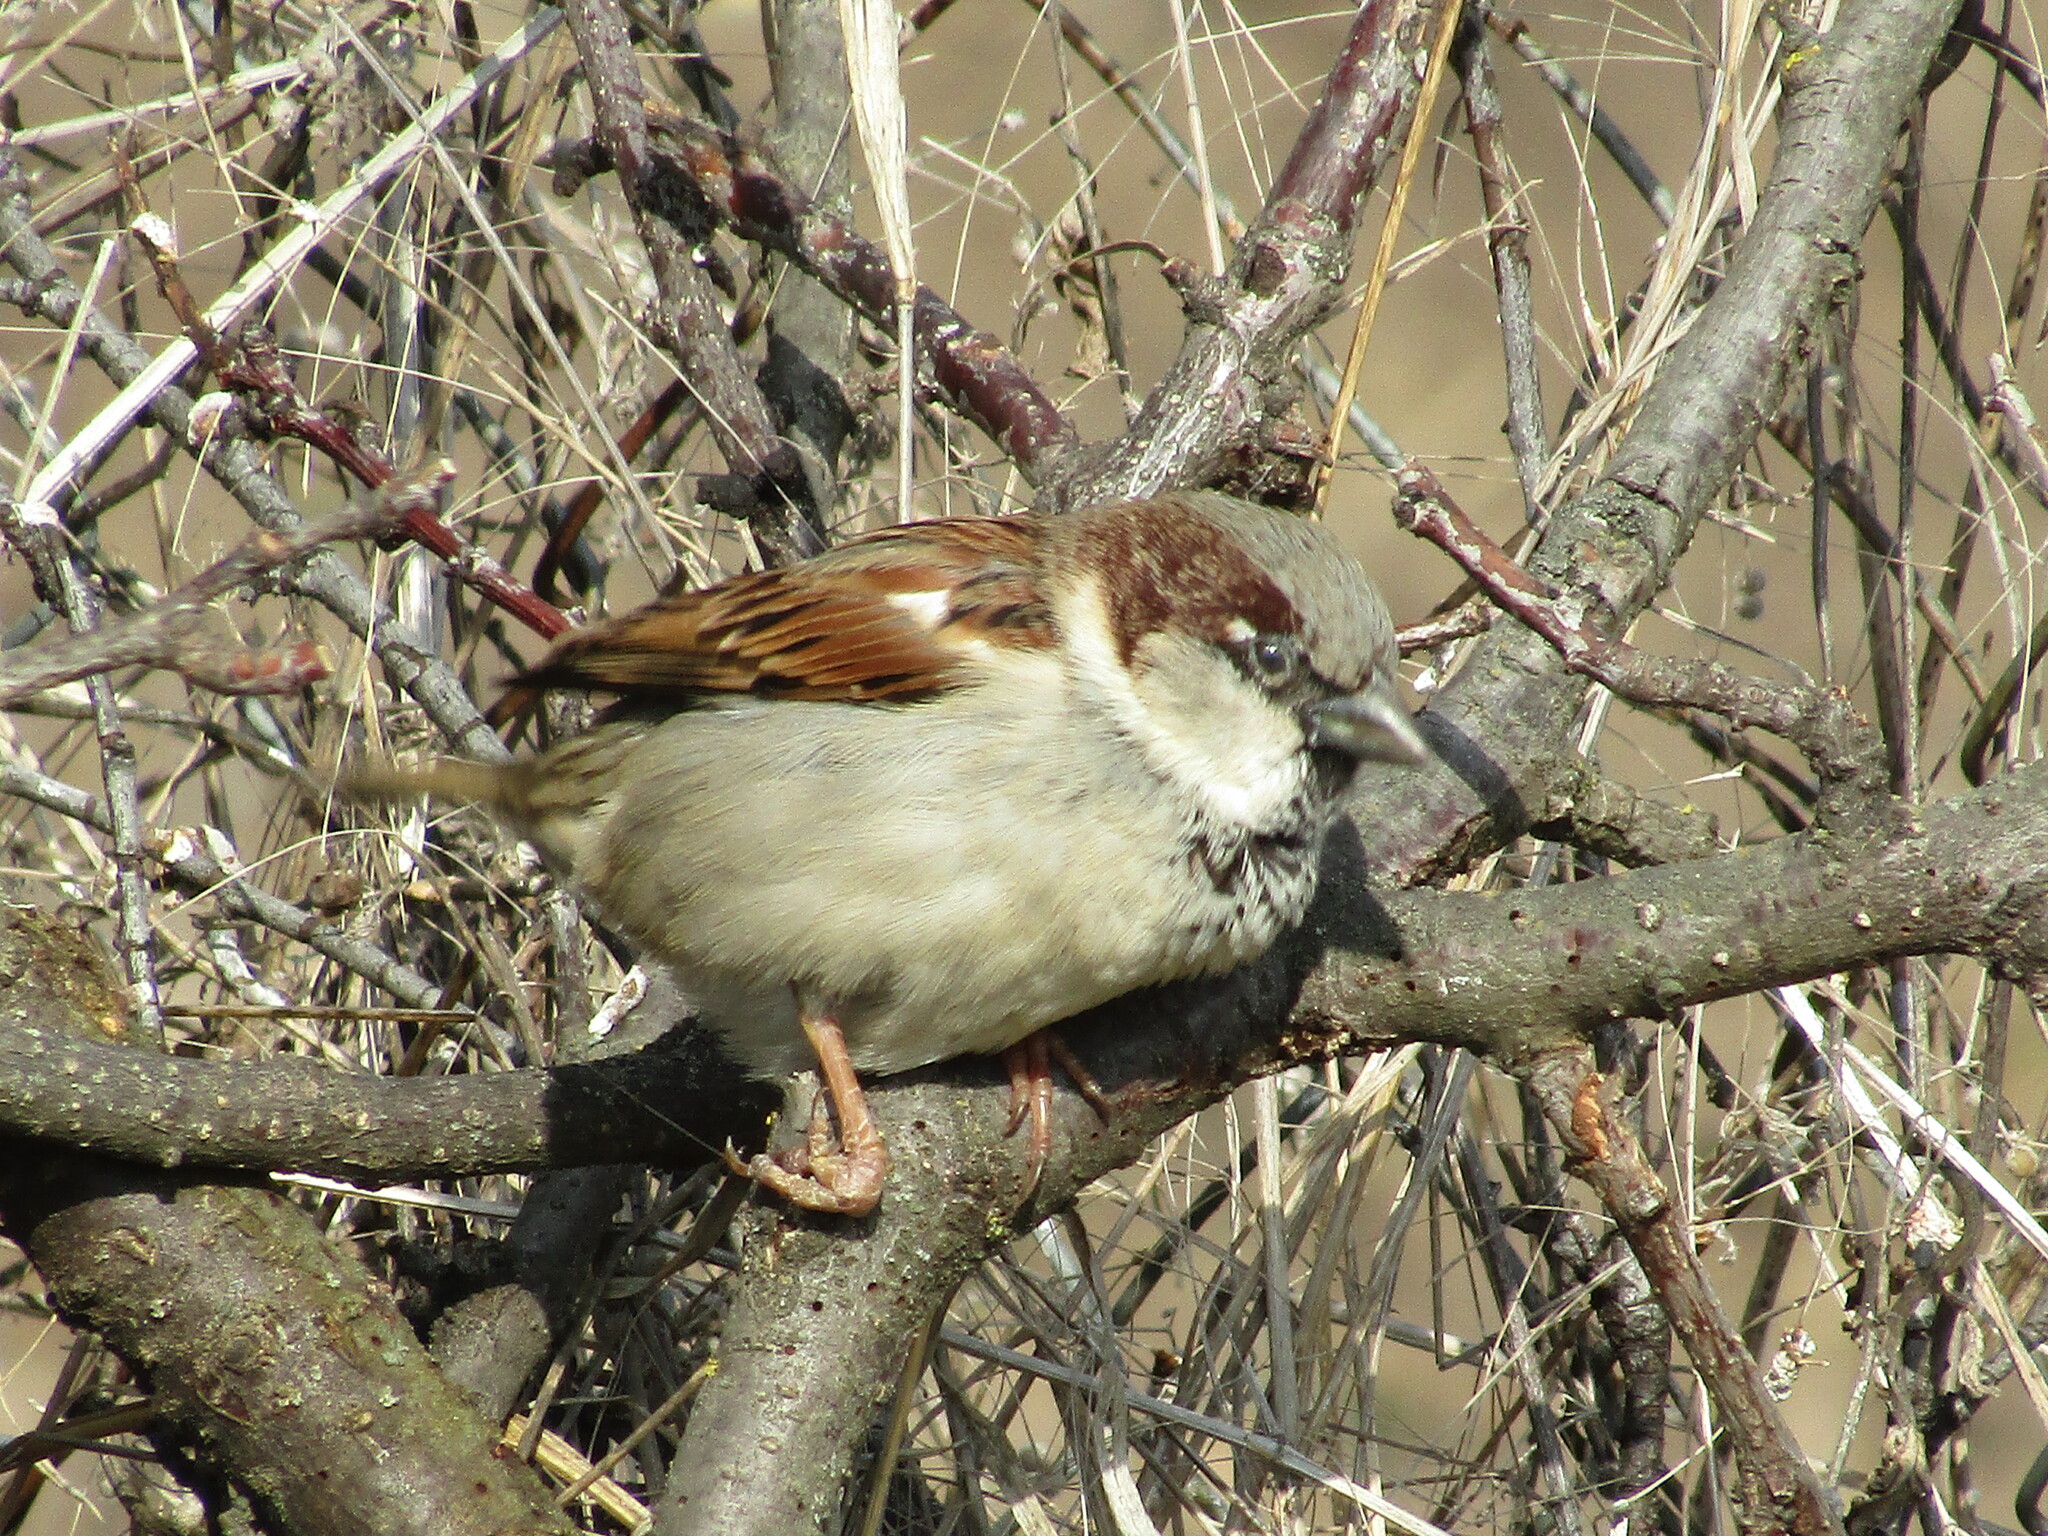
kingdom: Animalia
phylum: Chordata
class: Aves
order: Passeriformes
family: Passeridae
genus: Passer
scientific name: Passer domesticus
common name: House sparrow
